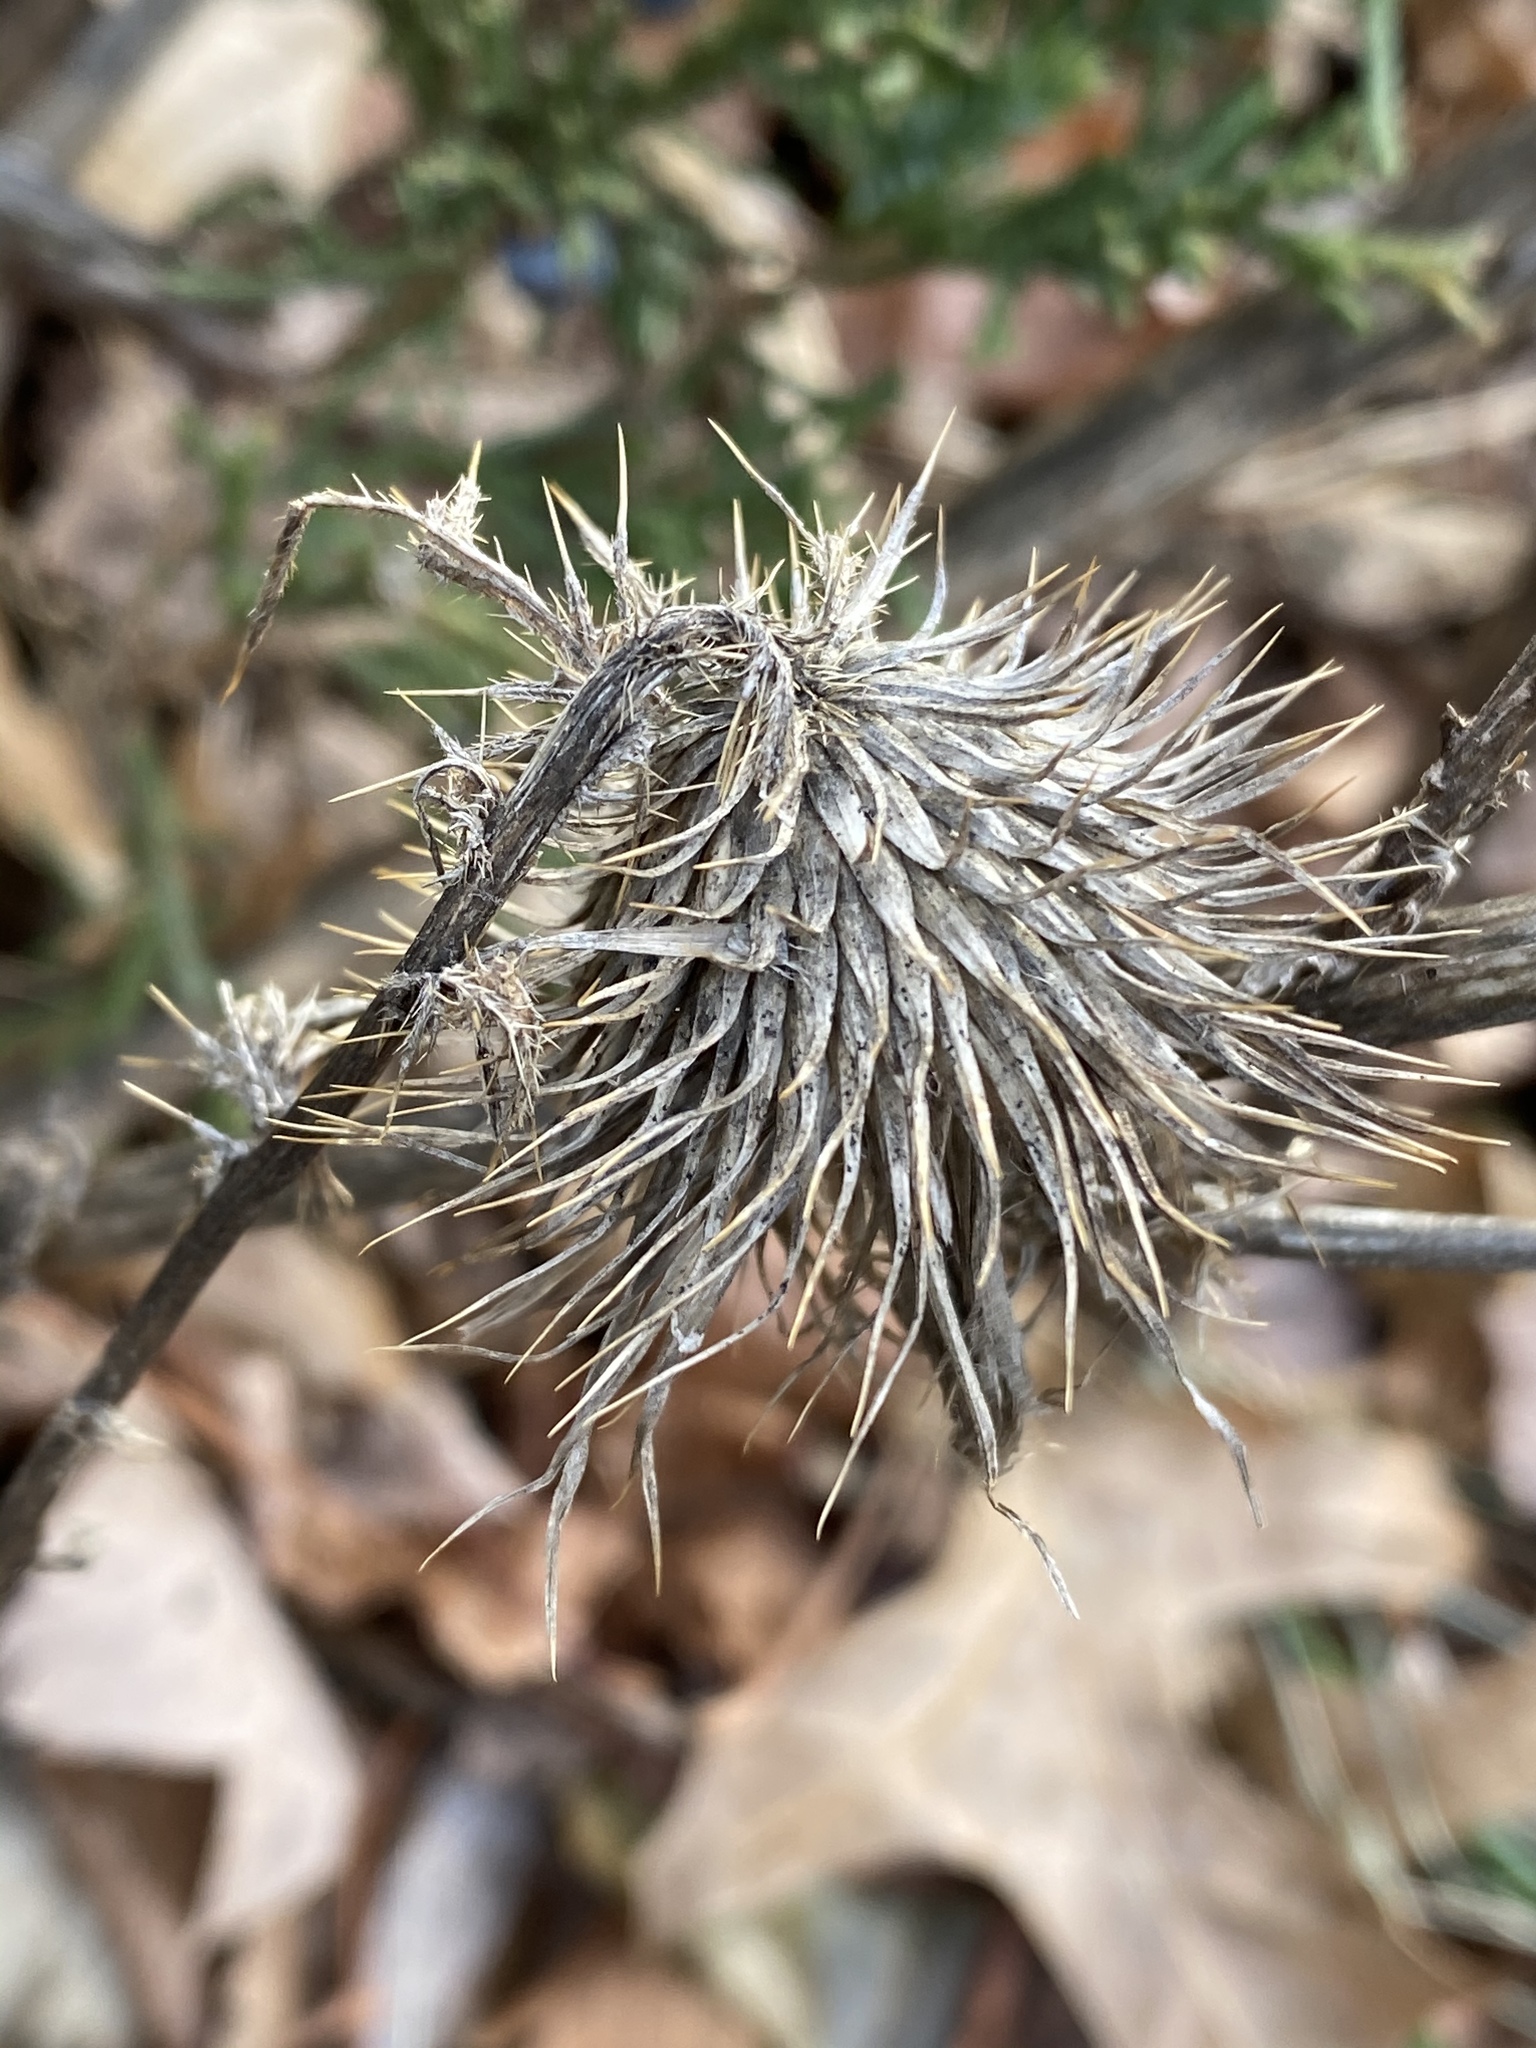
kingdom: Plantae
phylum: Tracheophyta
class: Magnoliopsida
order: Asterales
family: Asteraceae
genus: Cirsium
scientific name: Cirsium vulgare
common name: Bull thistle
